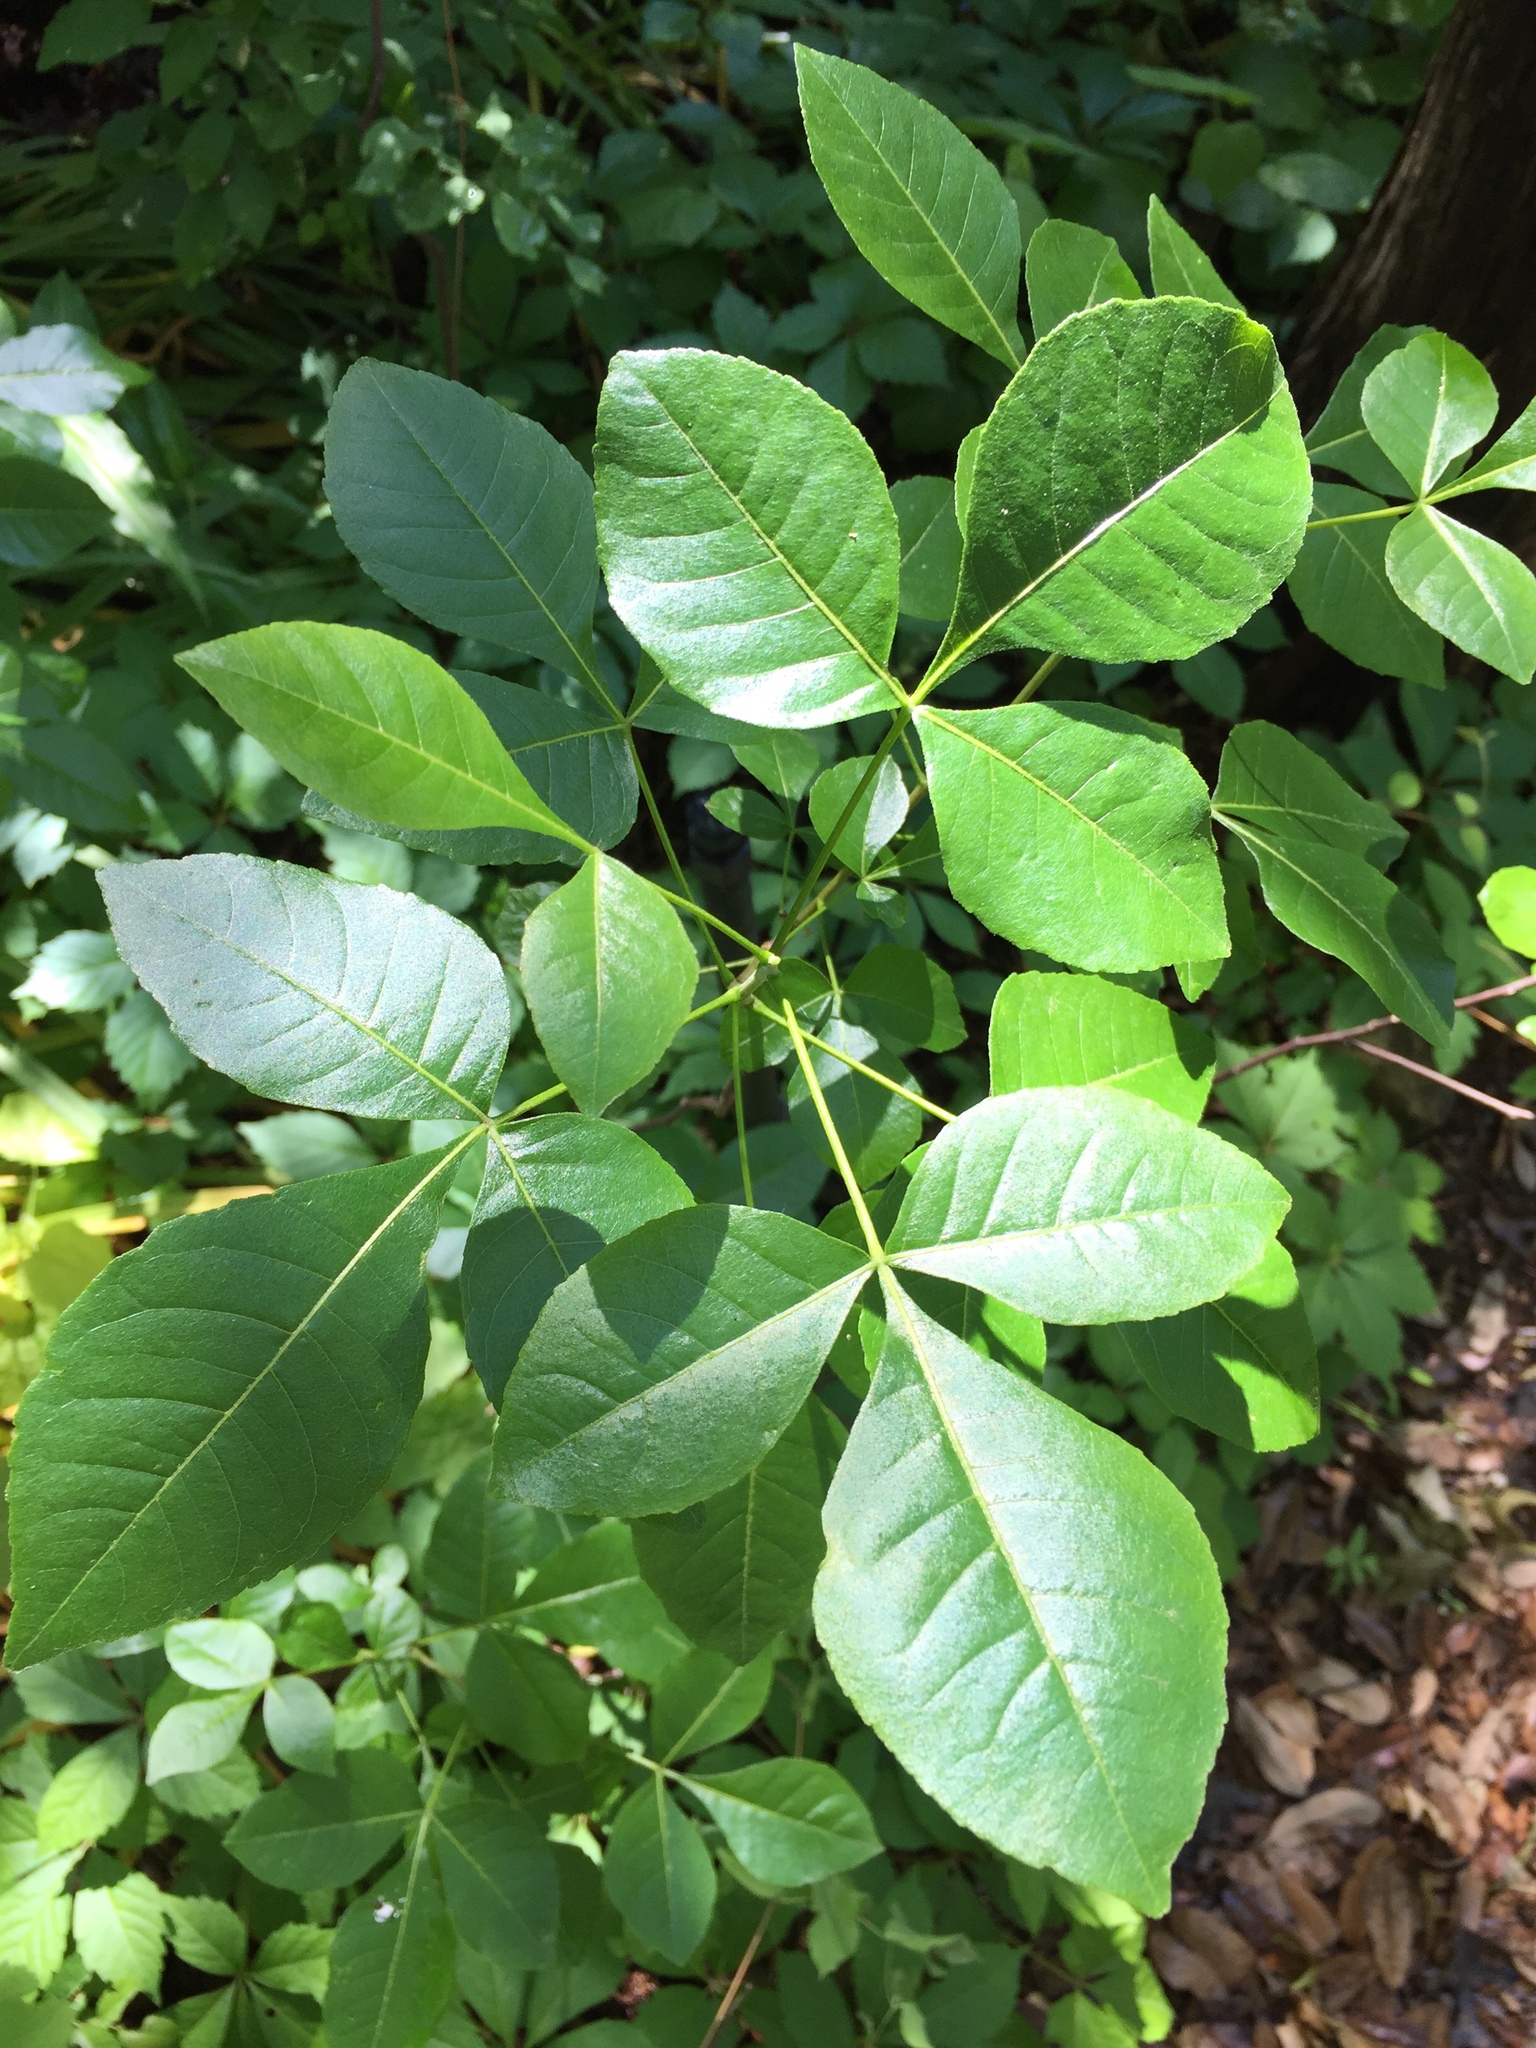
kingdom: Plantae
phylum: Tracheophyta
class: Magnoliopsida
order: Sapindales
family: Rutaceae
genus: Ptelea
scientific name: Ptelea trifoliata
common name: Common hop-tree
